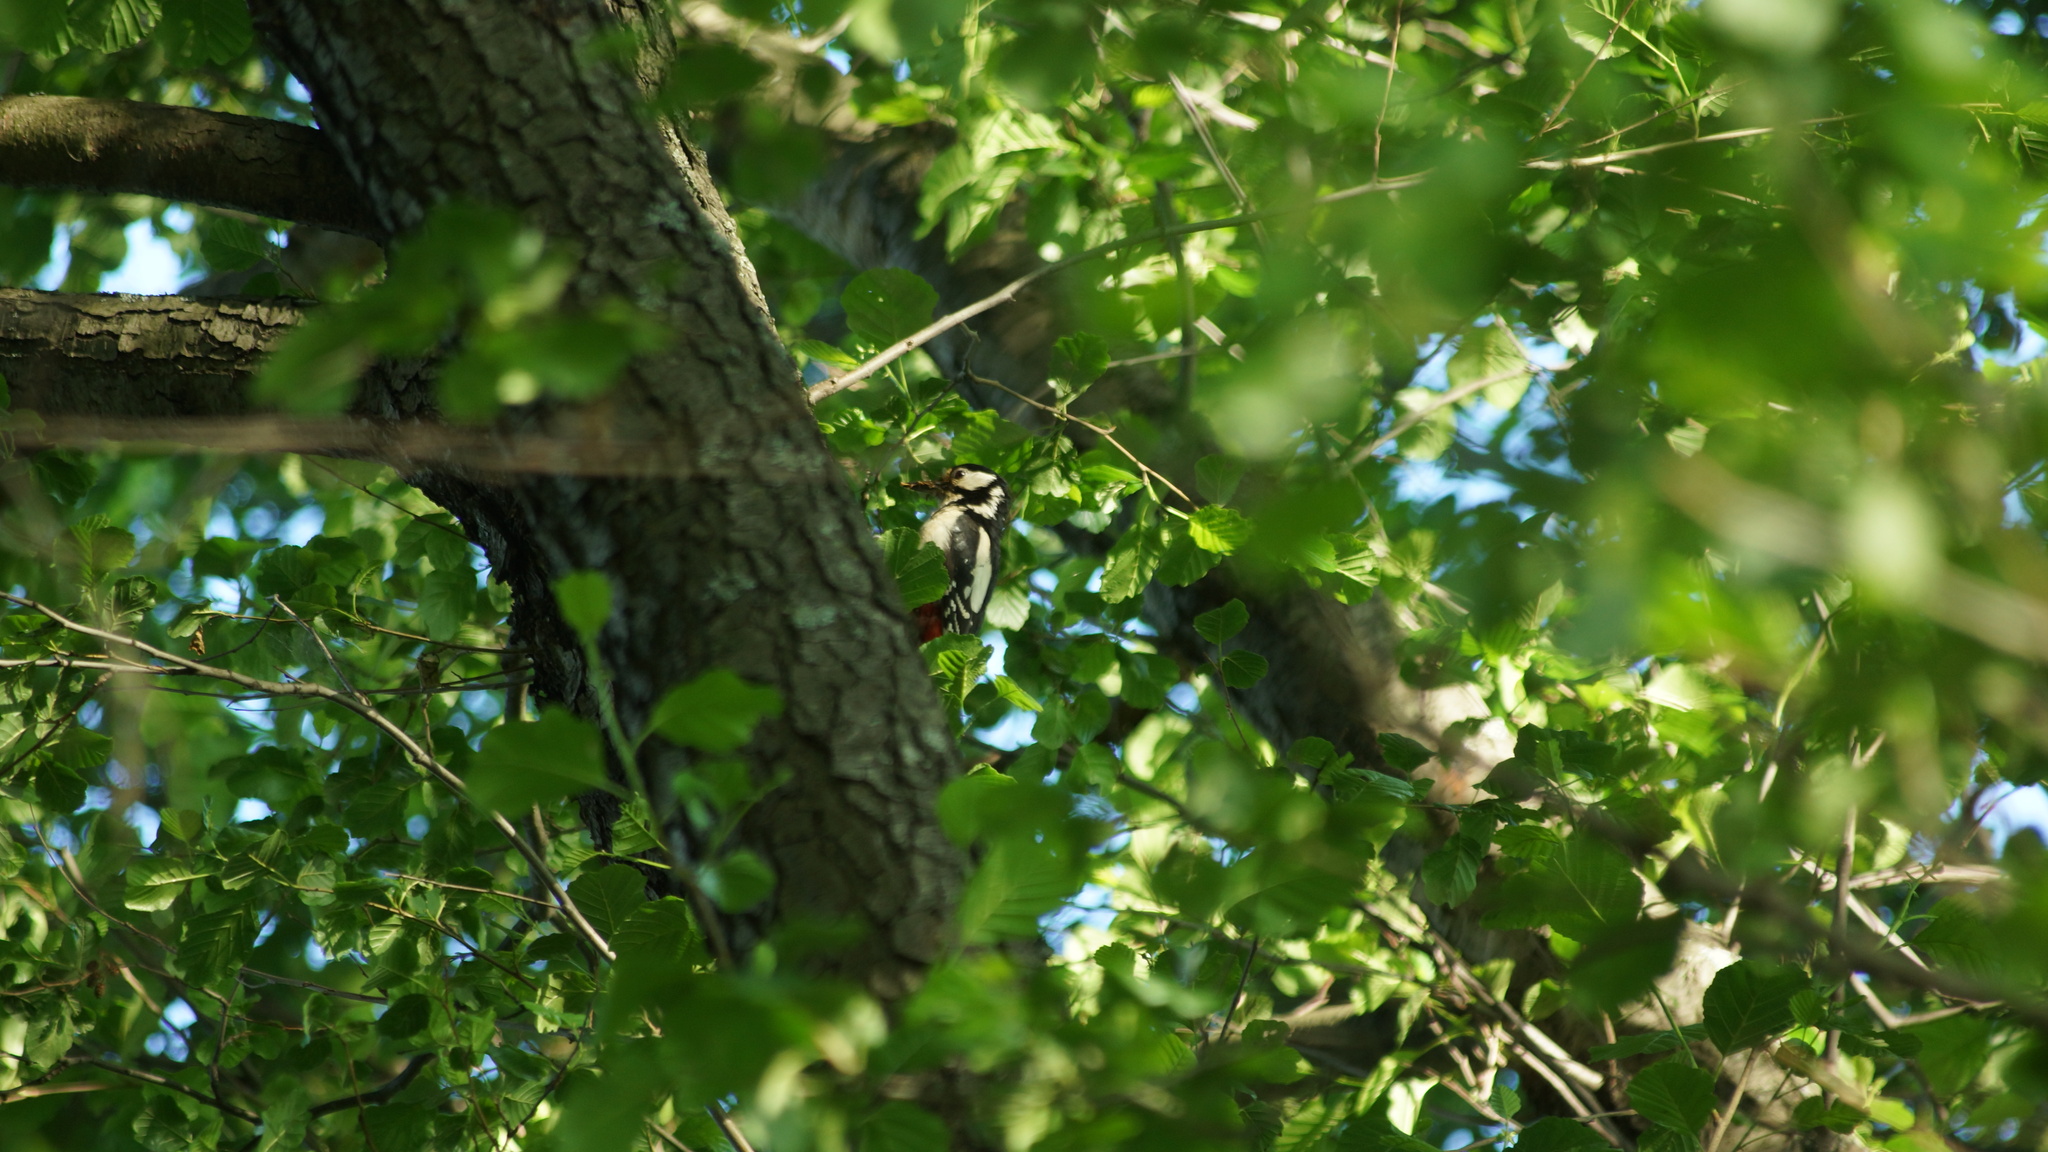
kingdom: Animalia
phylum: Chordata
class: Aves
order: Piciformes
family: Picidae
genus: Dendrocopos
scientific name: Dendrocopos major
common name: Great spotted woodpecker
